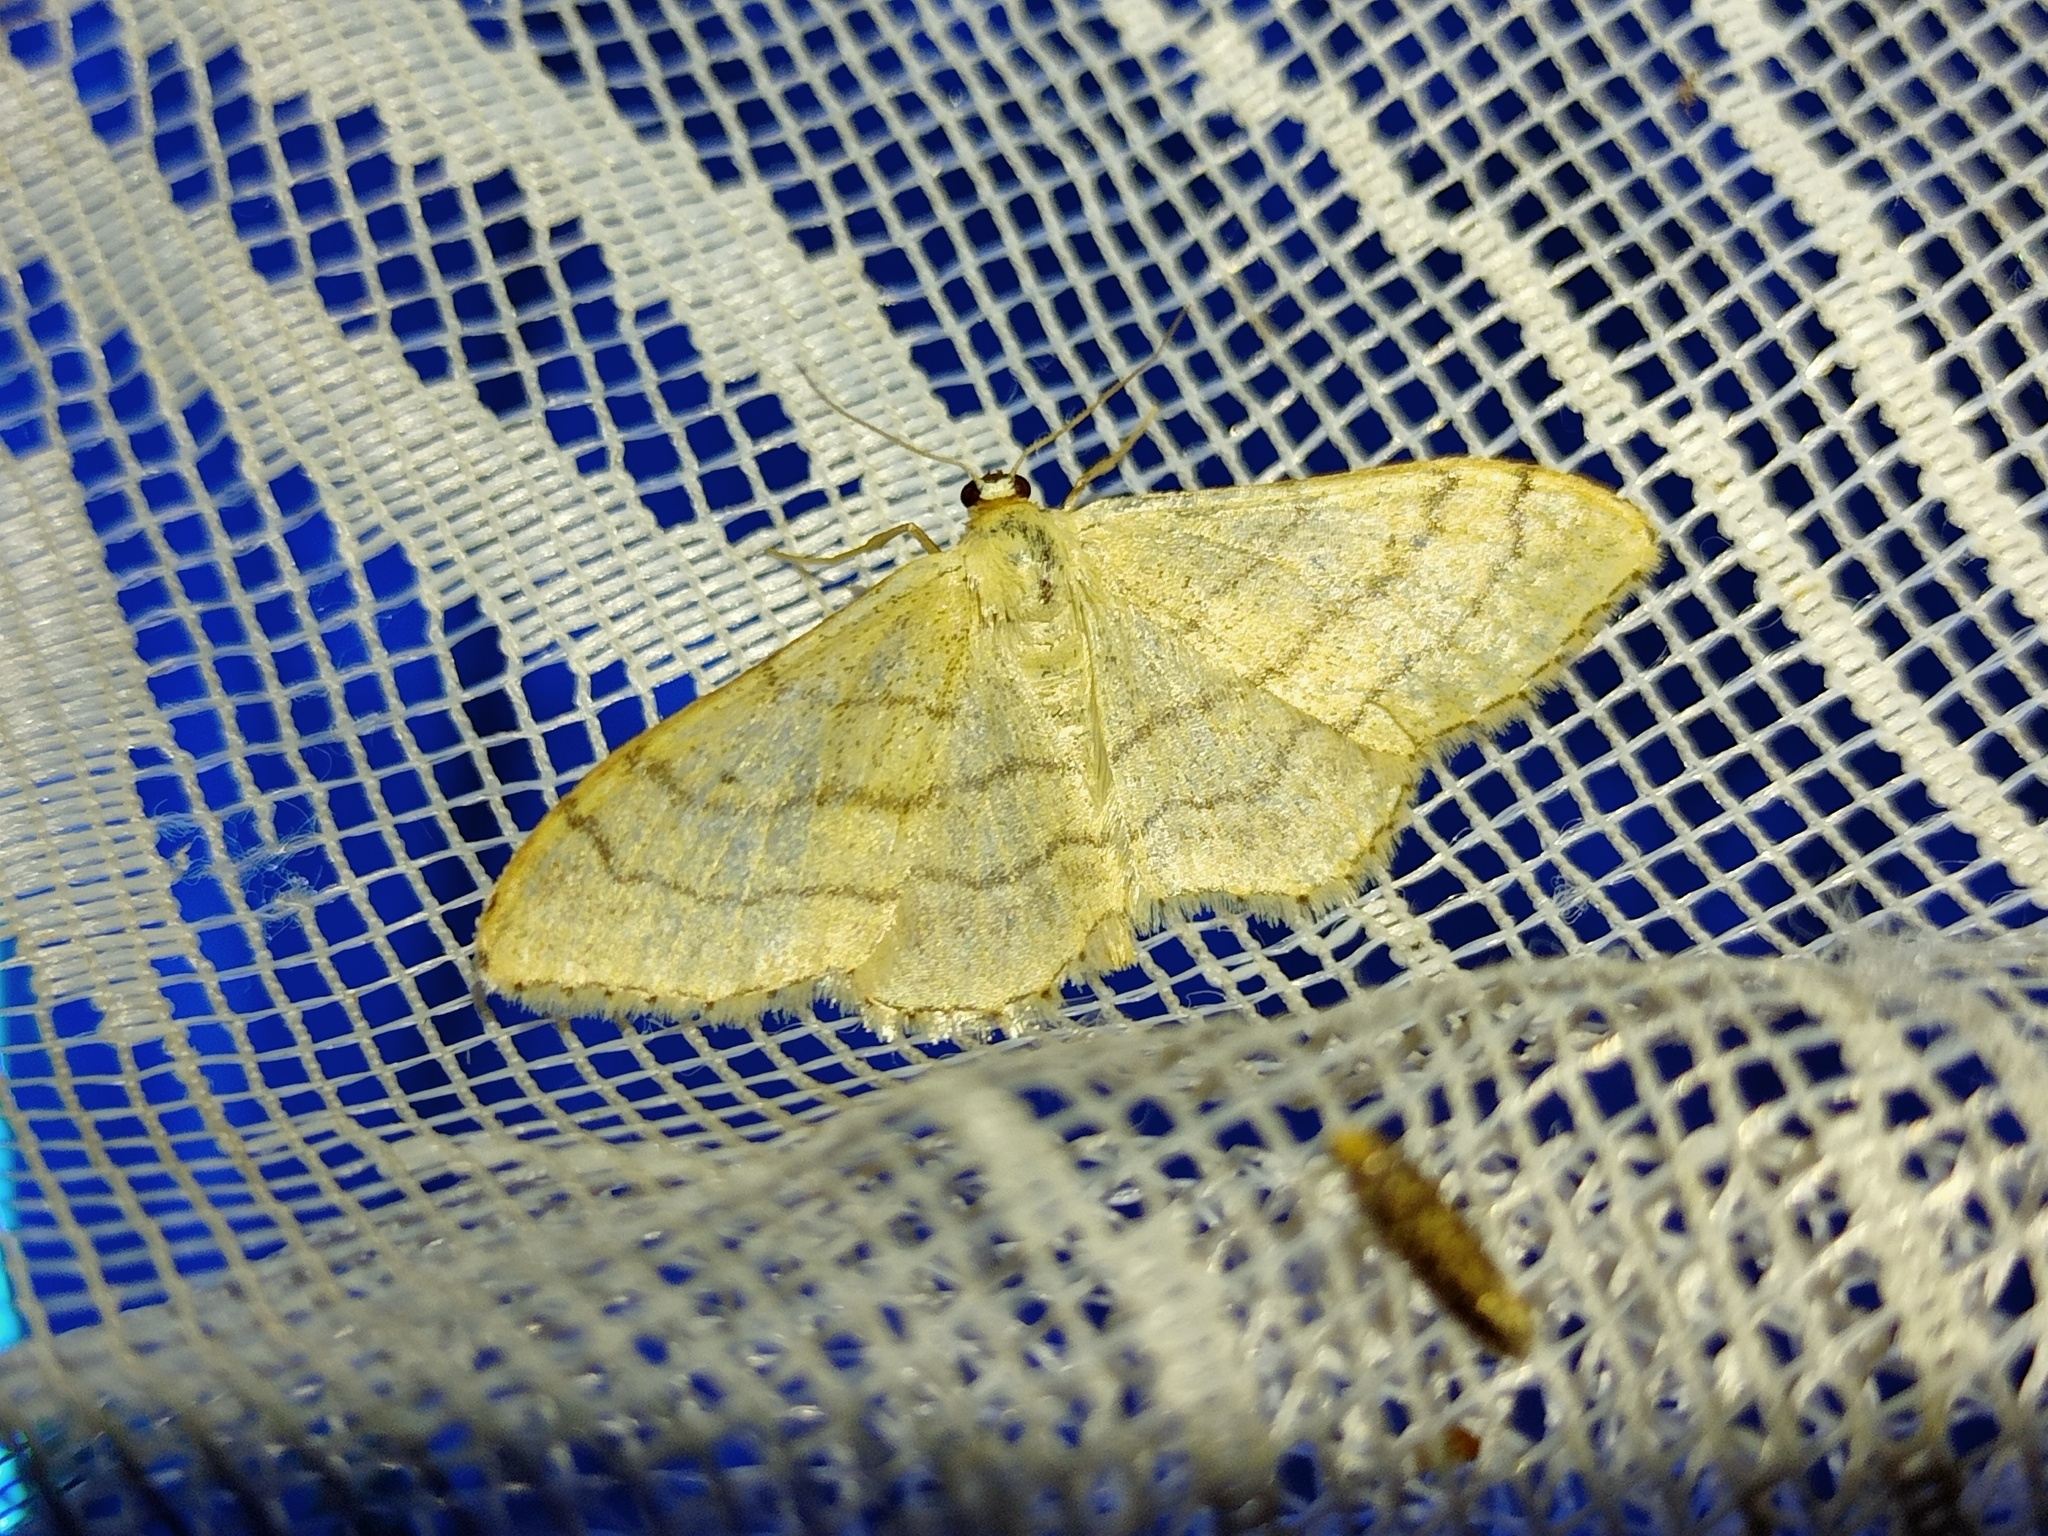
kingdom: Animalia
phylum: Arthropoda
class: Insecta
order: Lepidoptera
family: Geometridae
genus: Idaea
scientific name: Idaea aversata
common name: Riband wave
